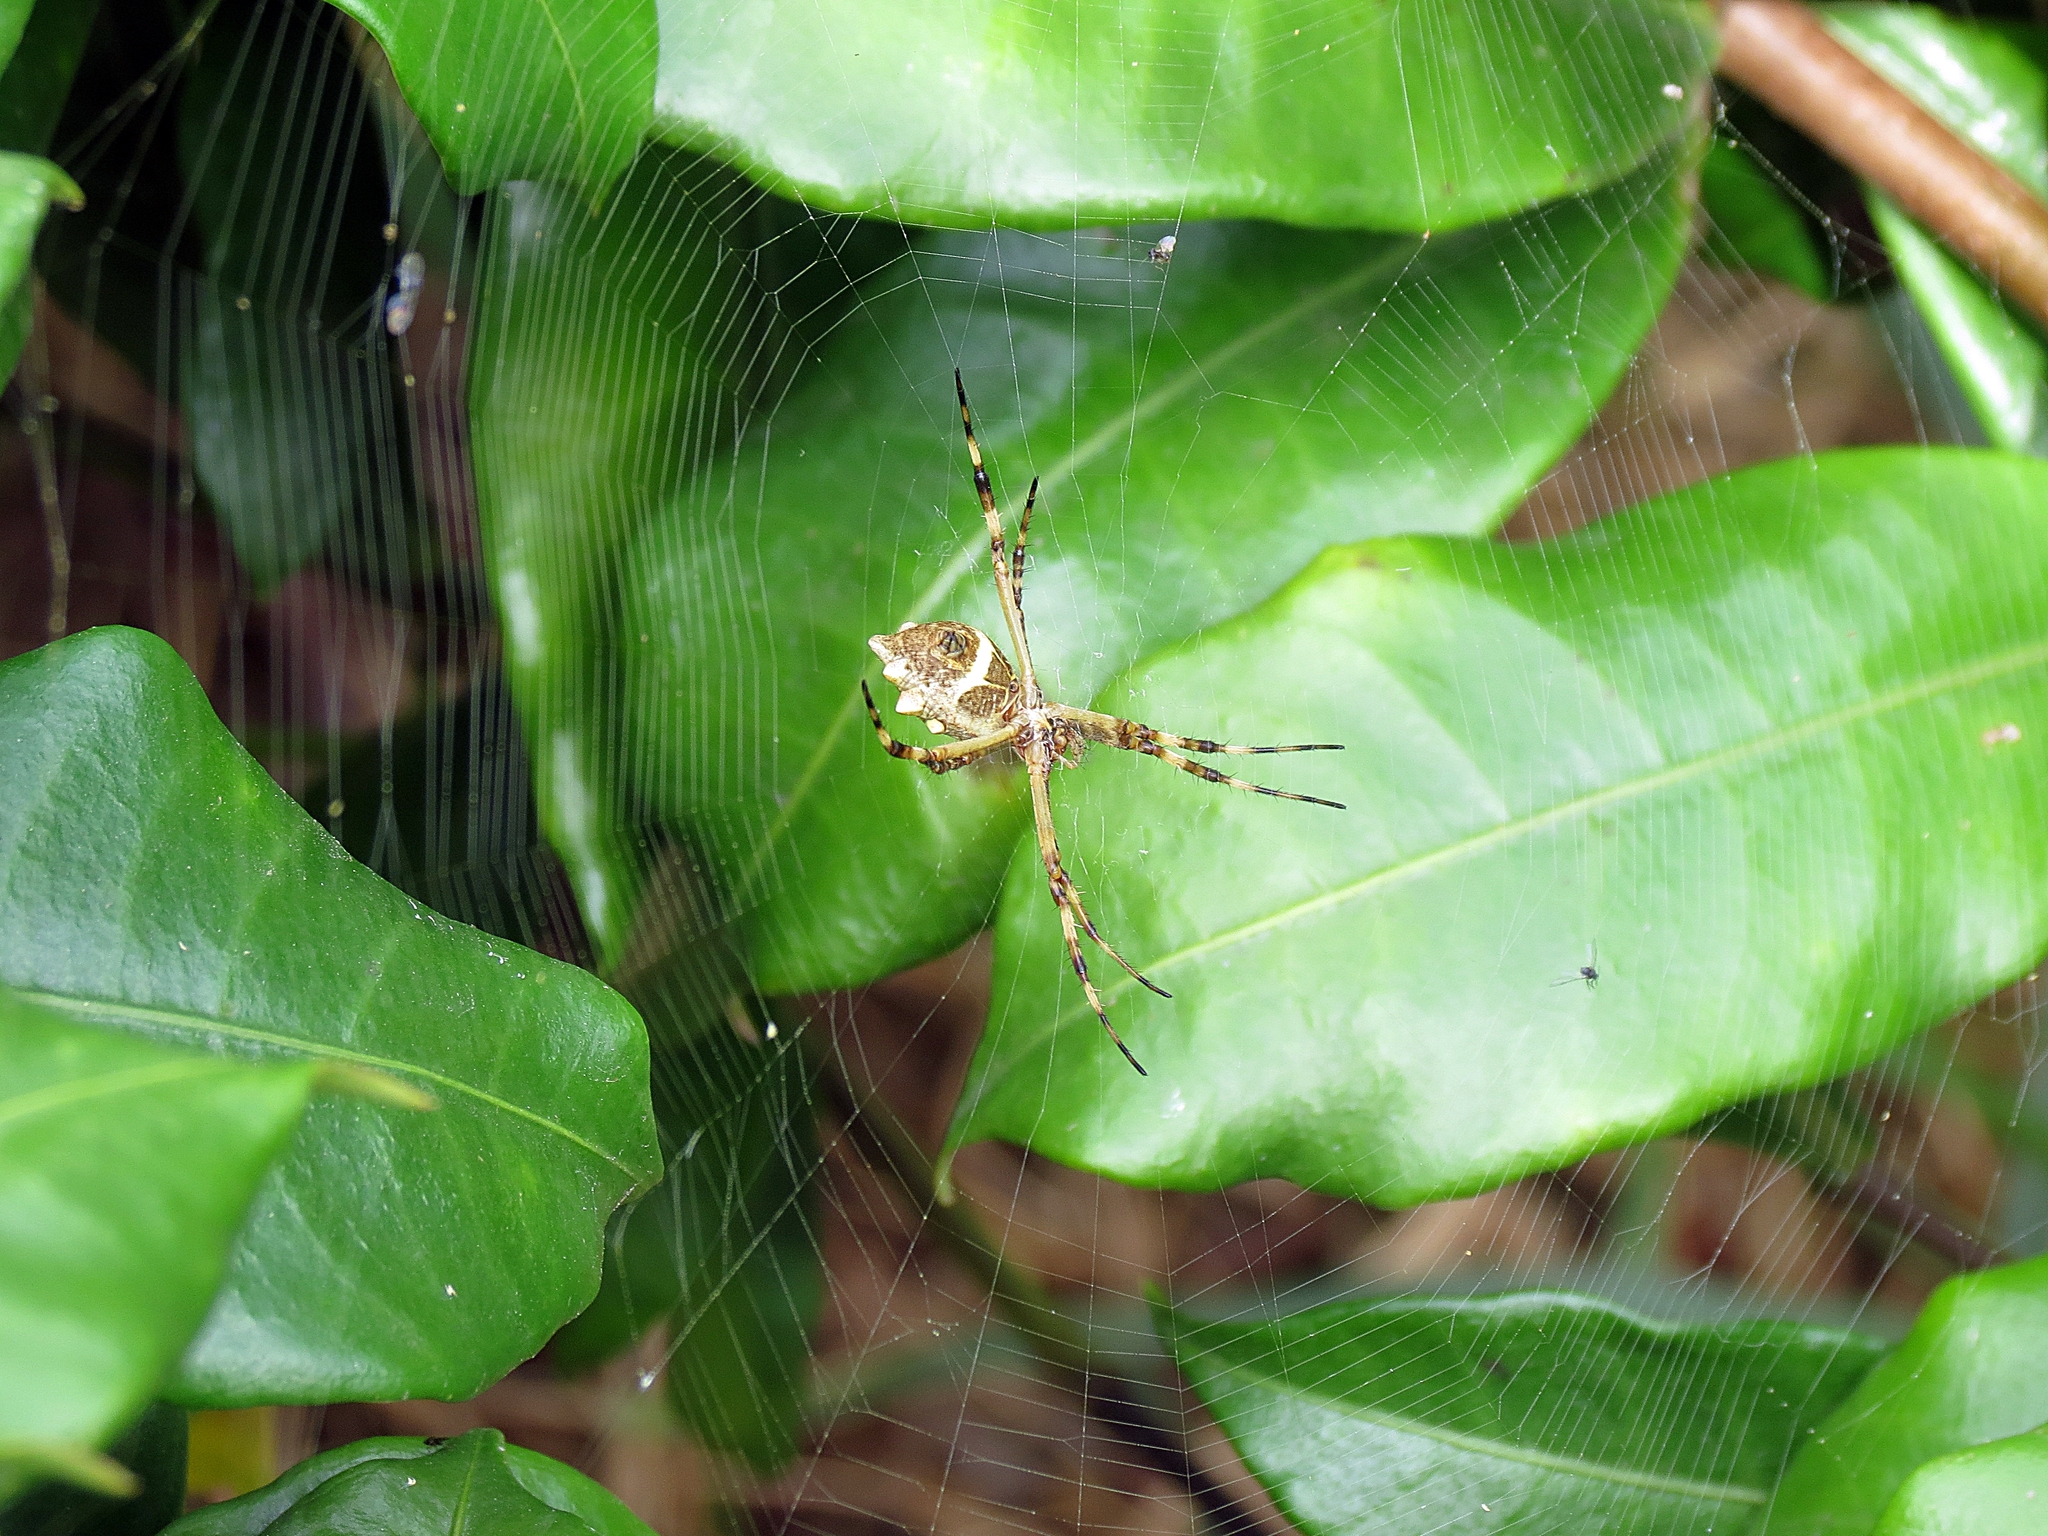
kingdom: Animalia
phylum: Arthropoda
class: Arachnida
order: Araneae
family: Araneidae
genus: Argiope
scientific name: Argiope argentata
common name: Orb weavers
